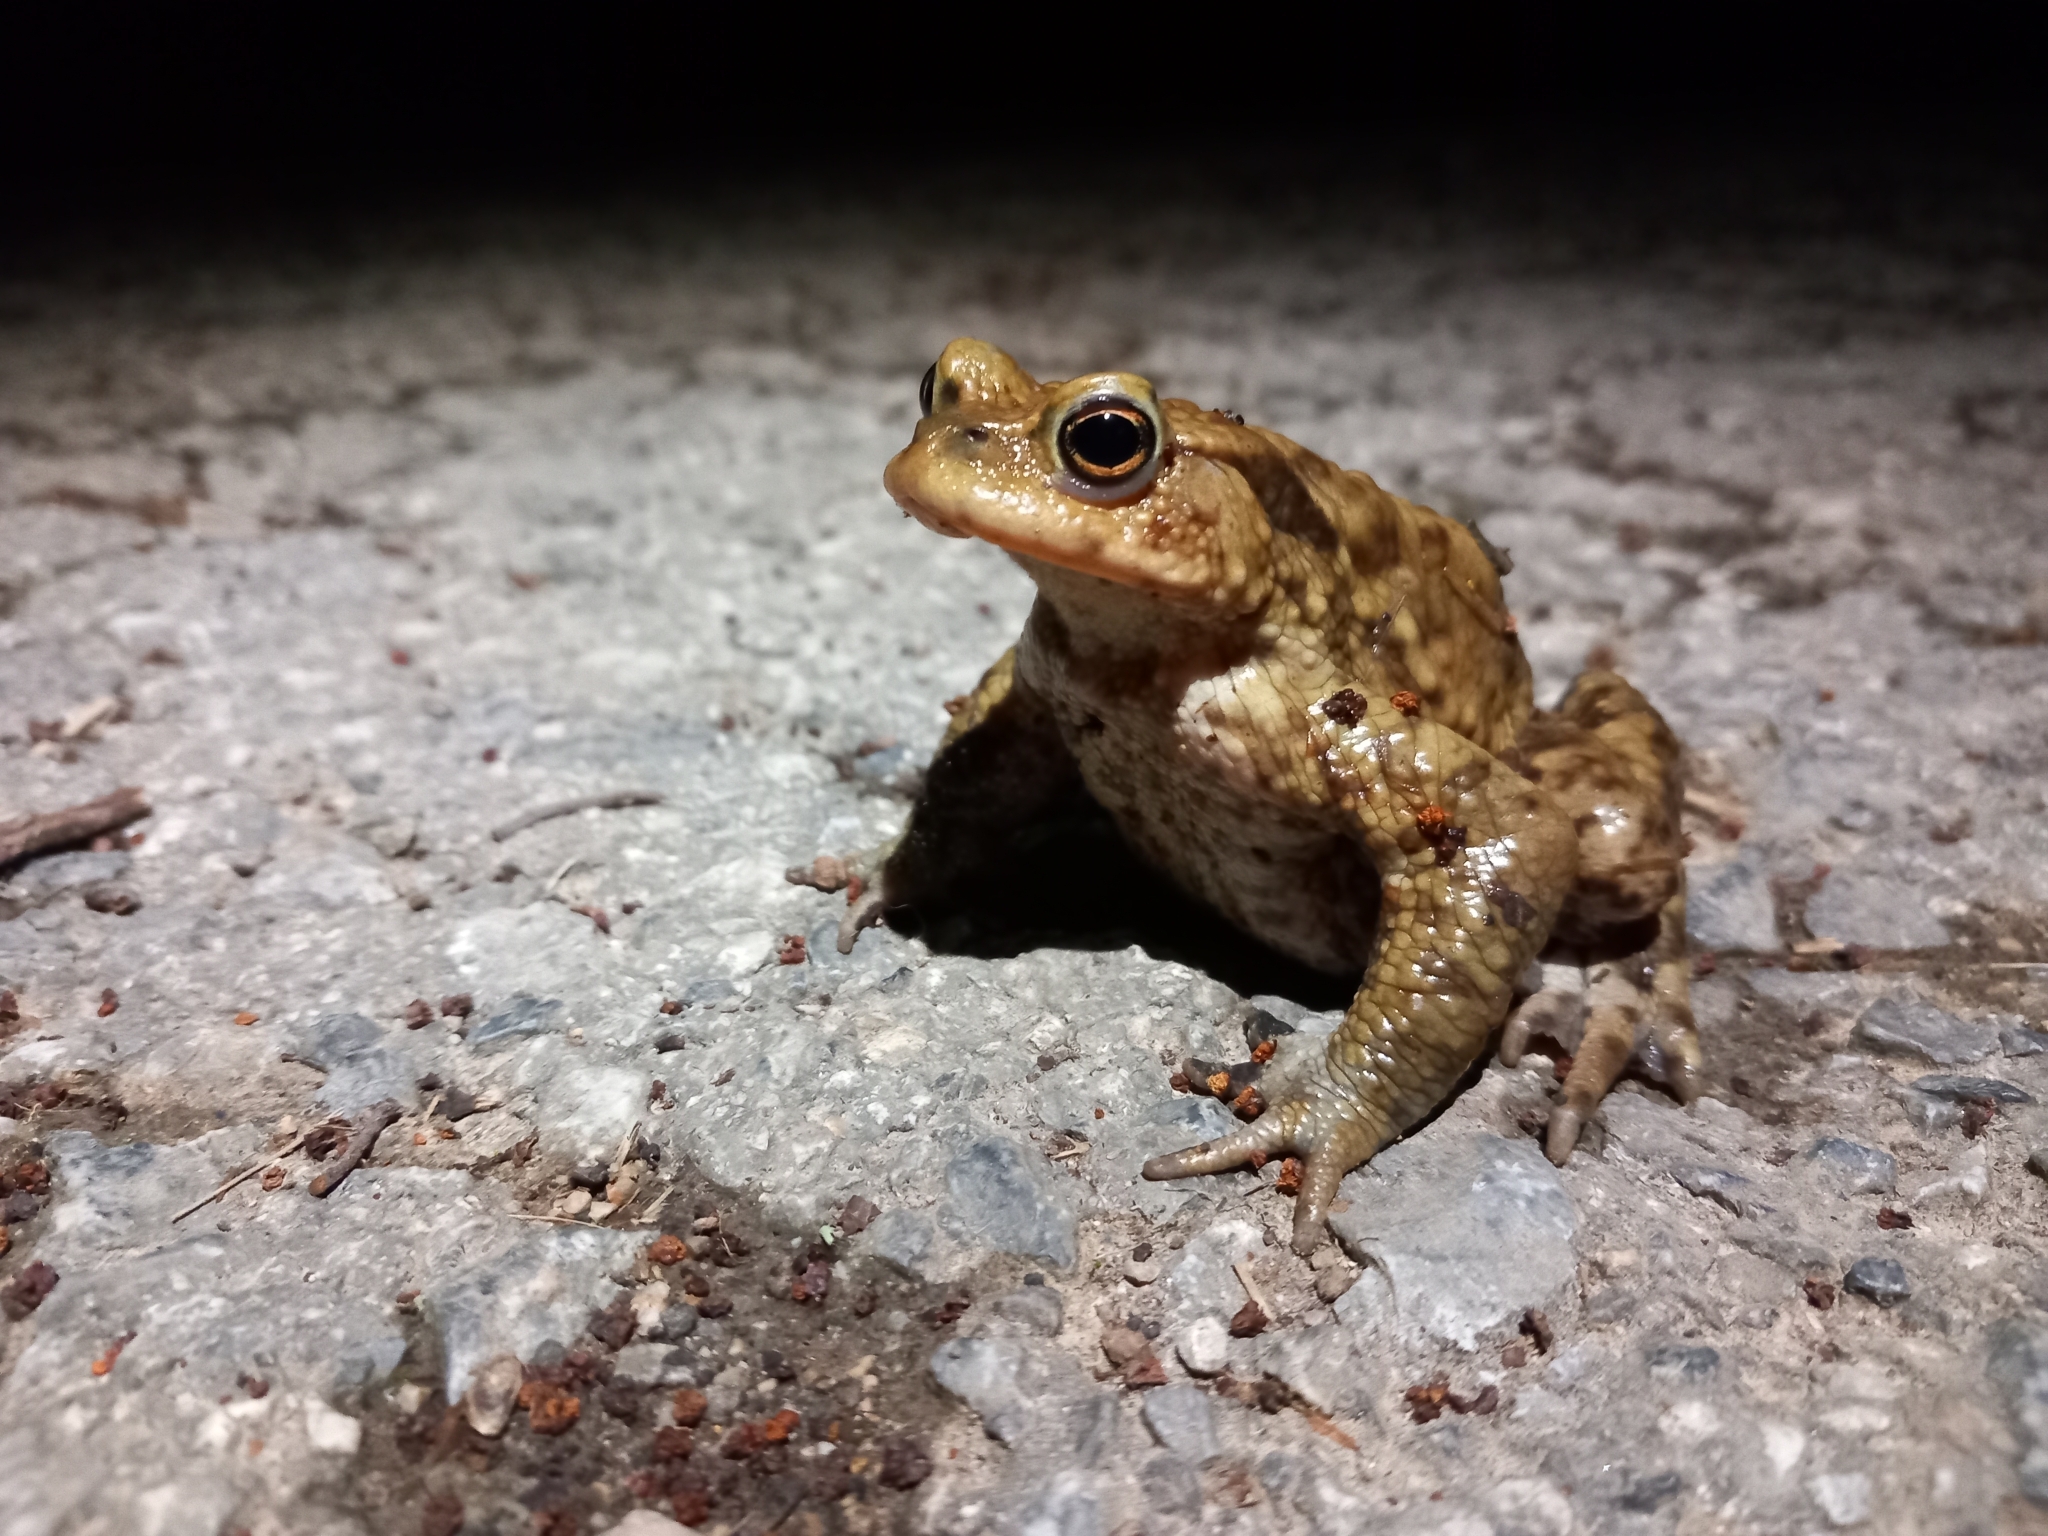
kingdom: Animalia
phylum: Chordata
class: Amphibia
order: Anura
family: Bufonidae
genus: Bufo
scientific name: Bufo bufo
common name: Common toad
